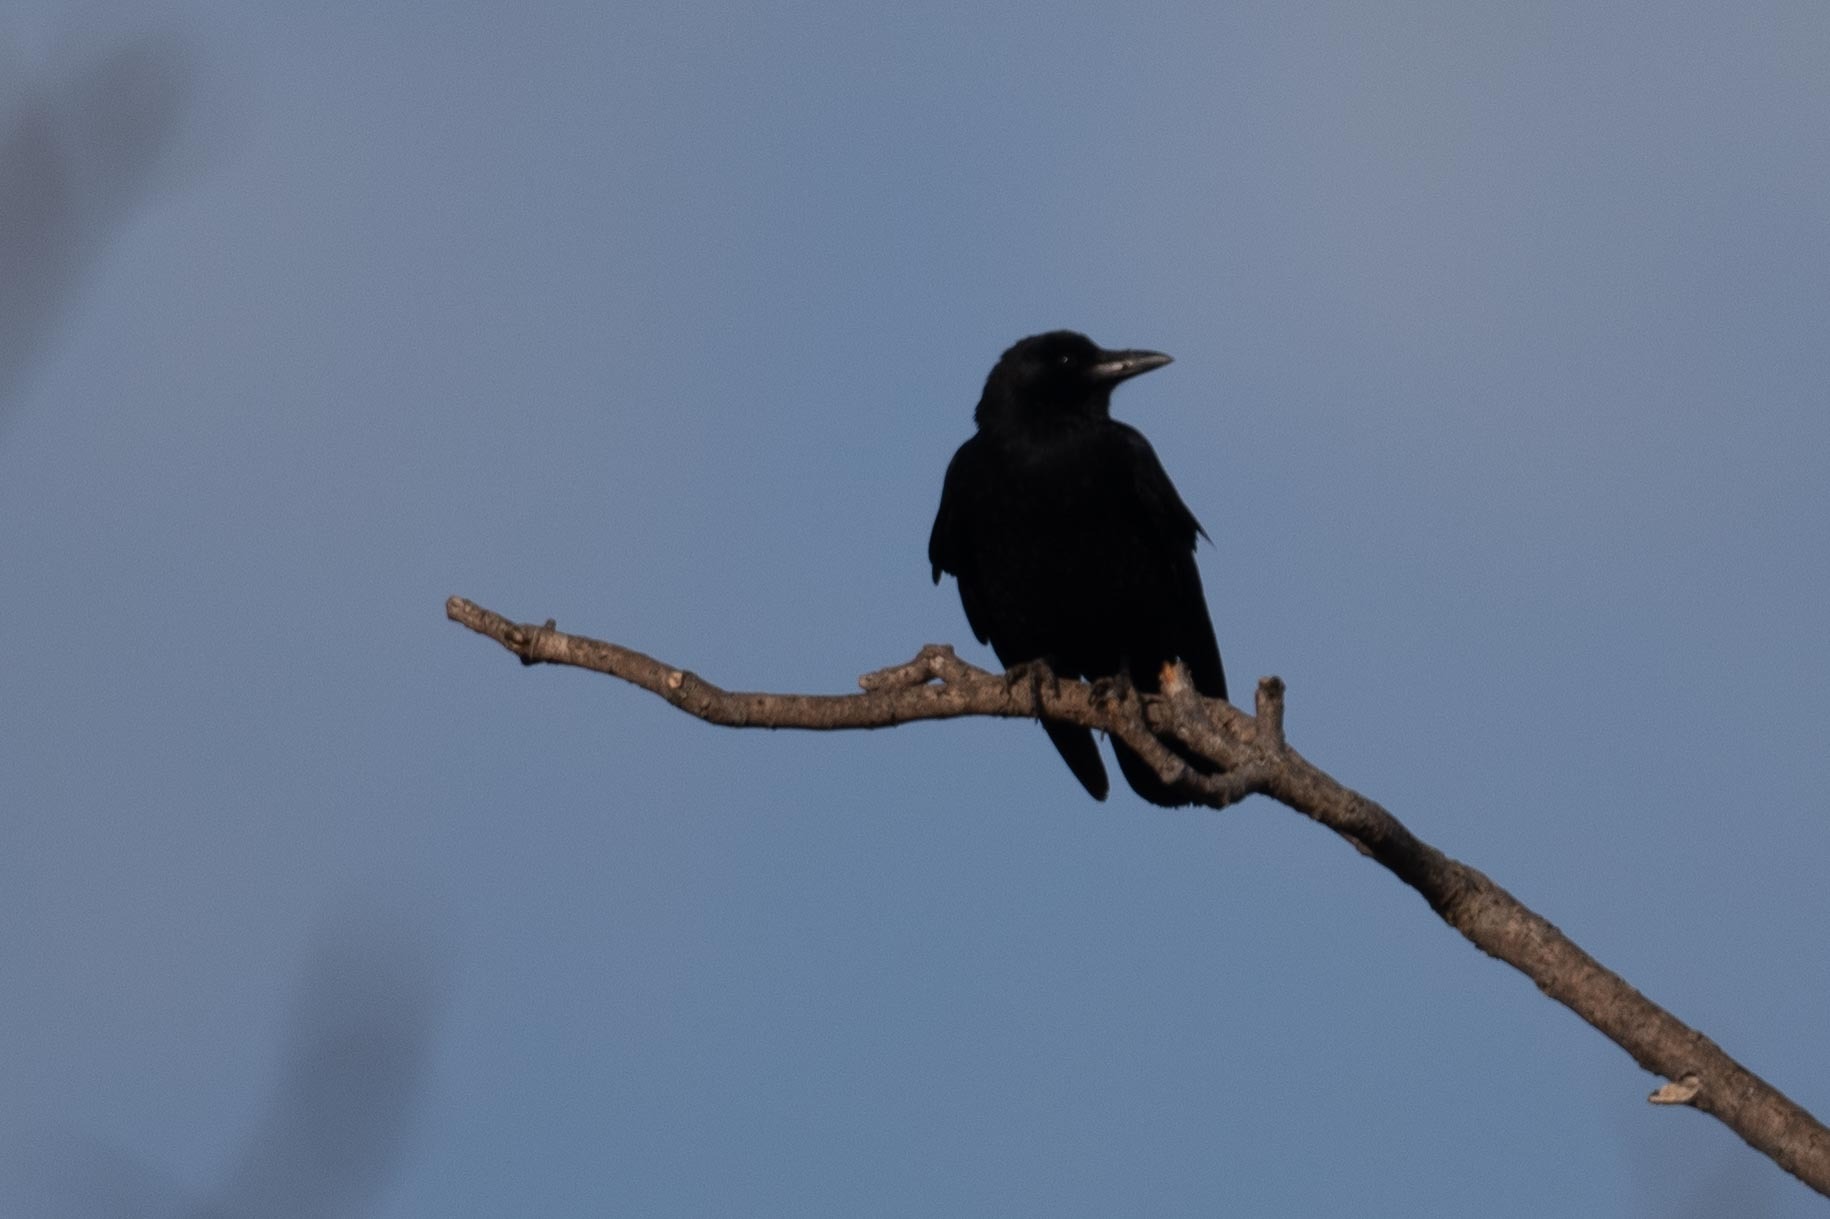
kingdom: Animalia
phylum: Chordata
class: Aves
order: Passeriformes
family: Corvidae
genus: Corvus
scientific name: Corvus brachyrhynchos
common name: American crow
